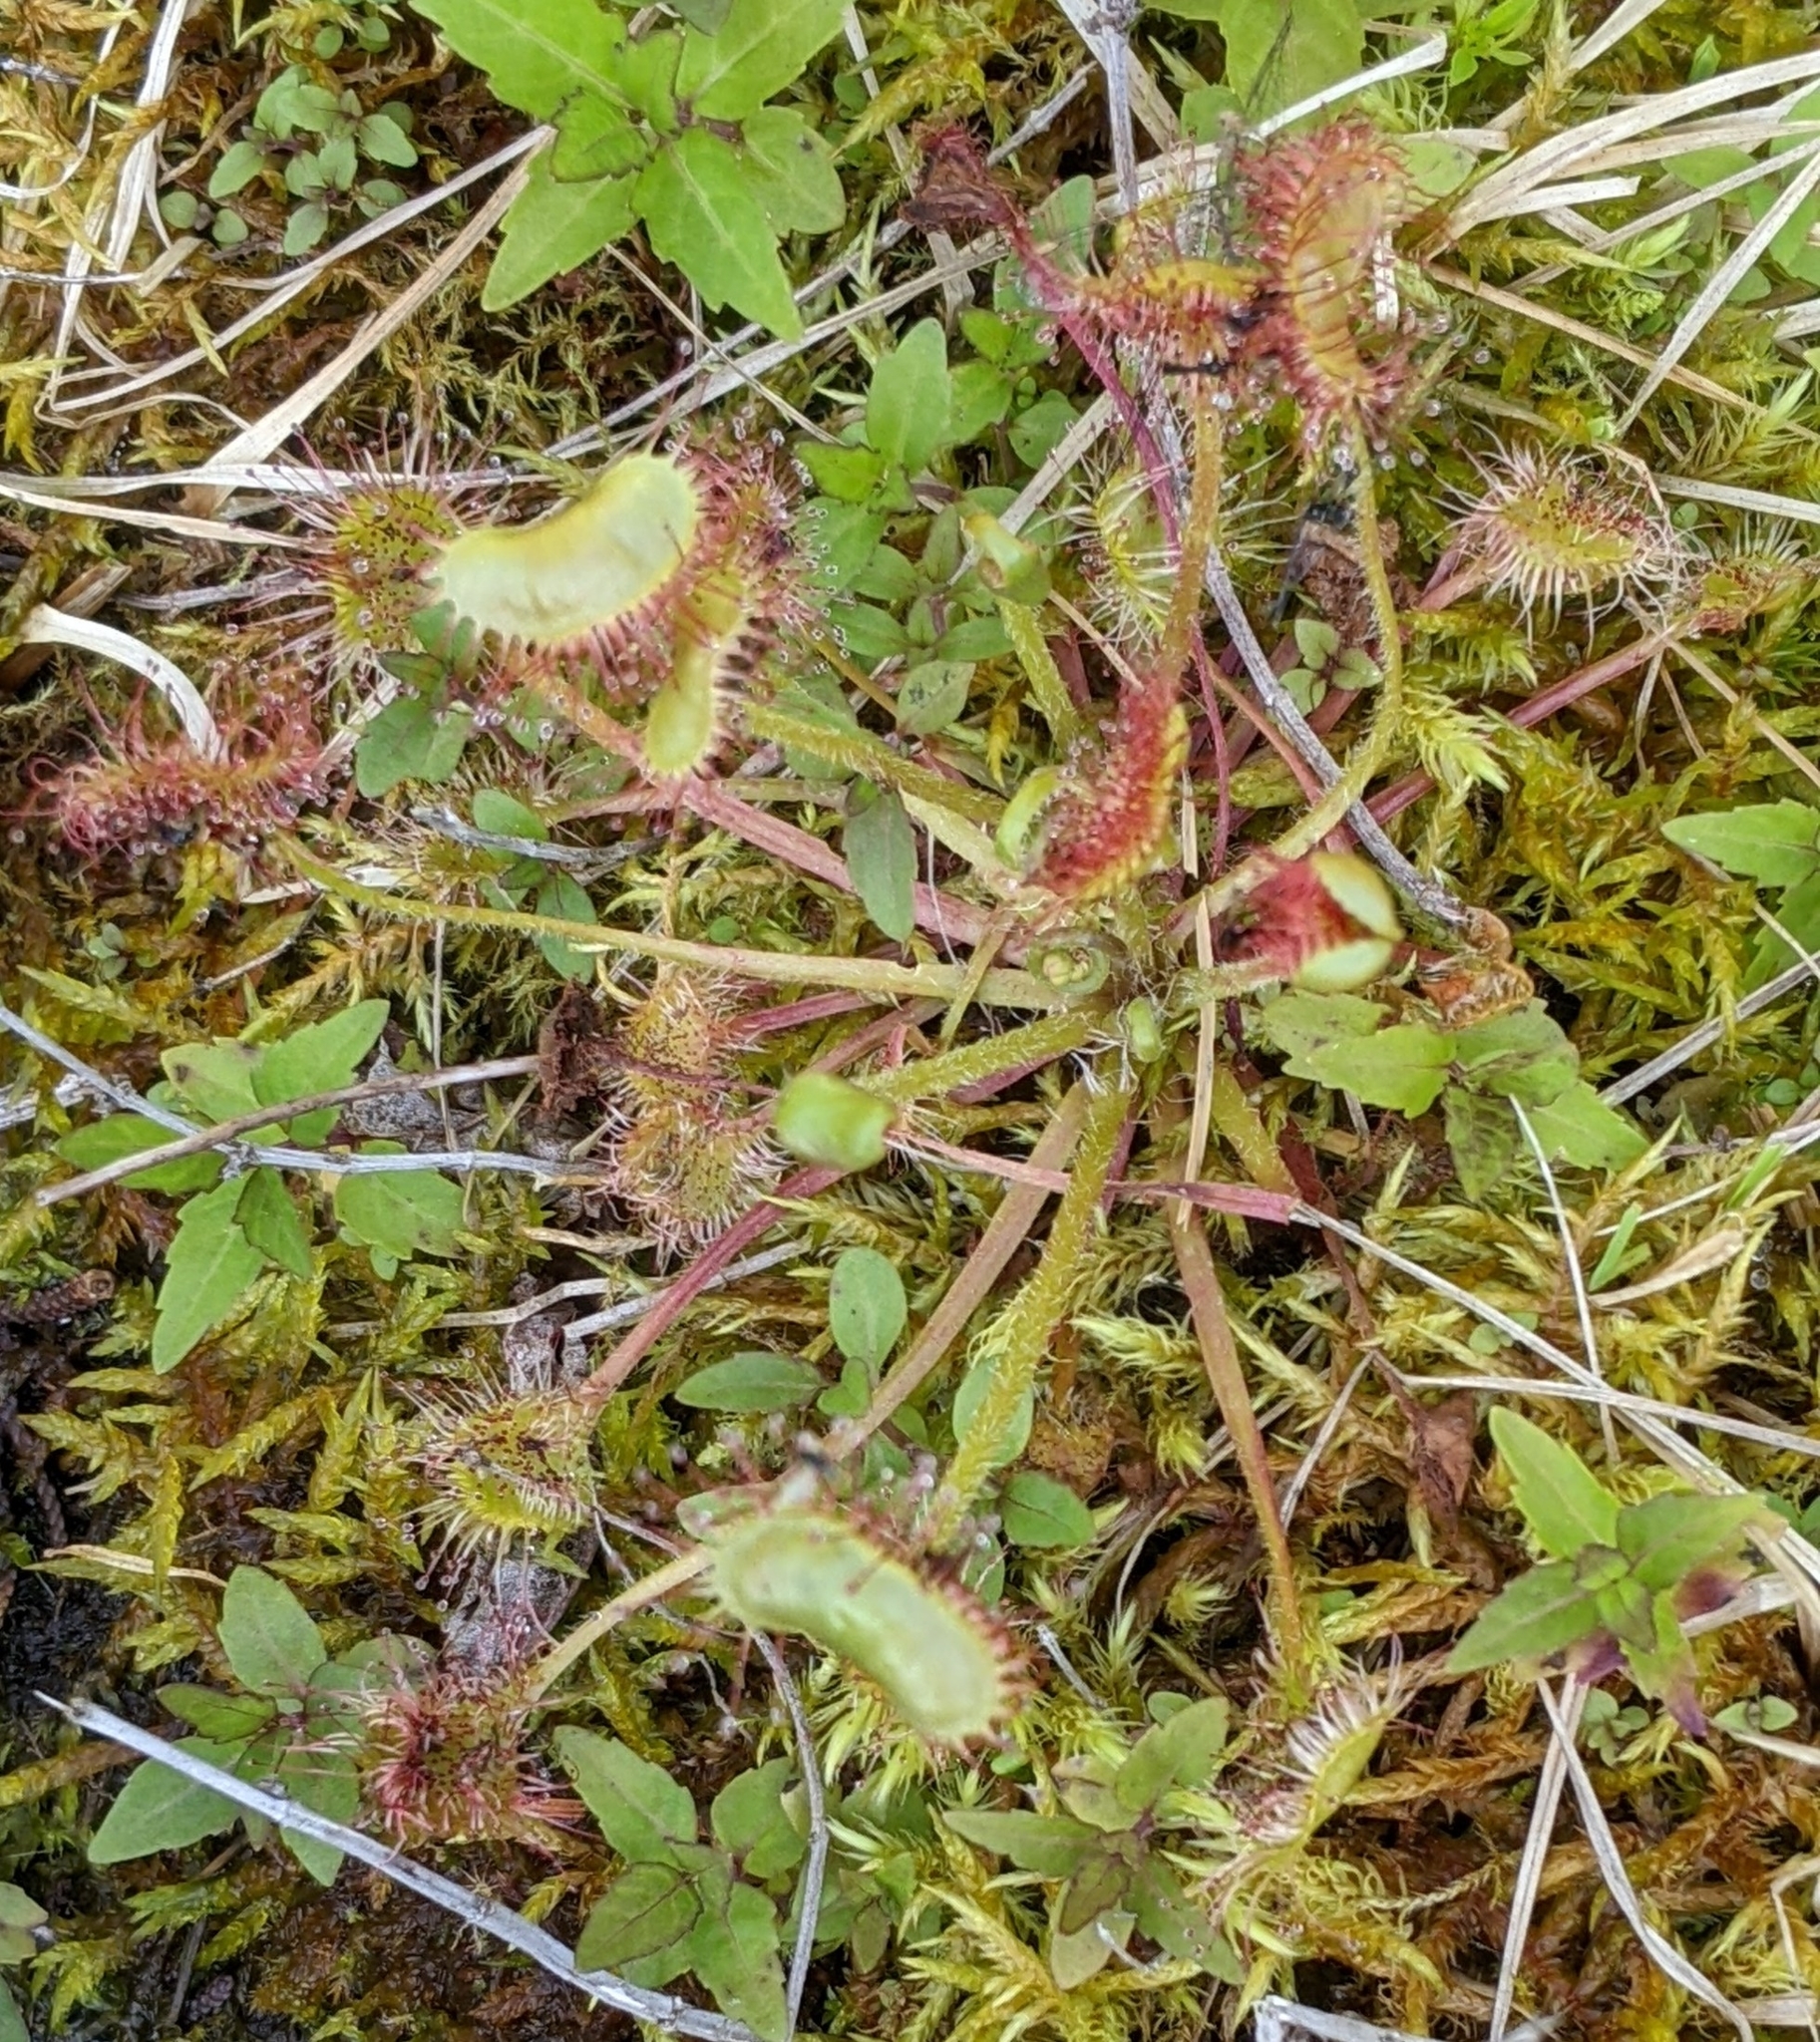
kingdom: Plantae
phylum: Tracheophyta
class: Magnoliopsida
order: Caryophyllales
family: Droseraceae
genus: Drosera
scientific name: Drosera rotundifolia
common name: Round-leaved sundew
